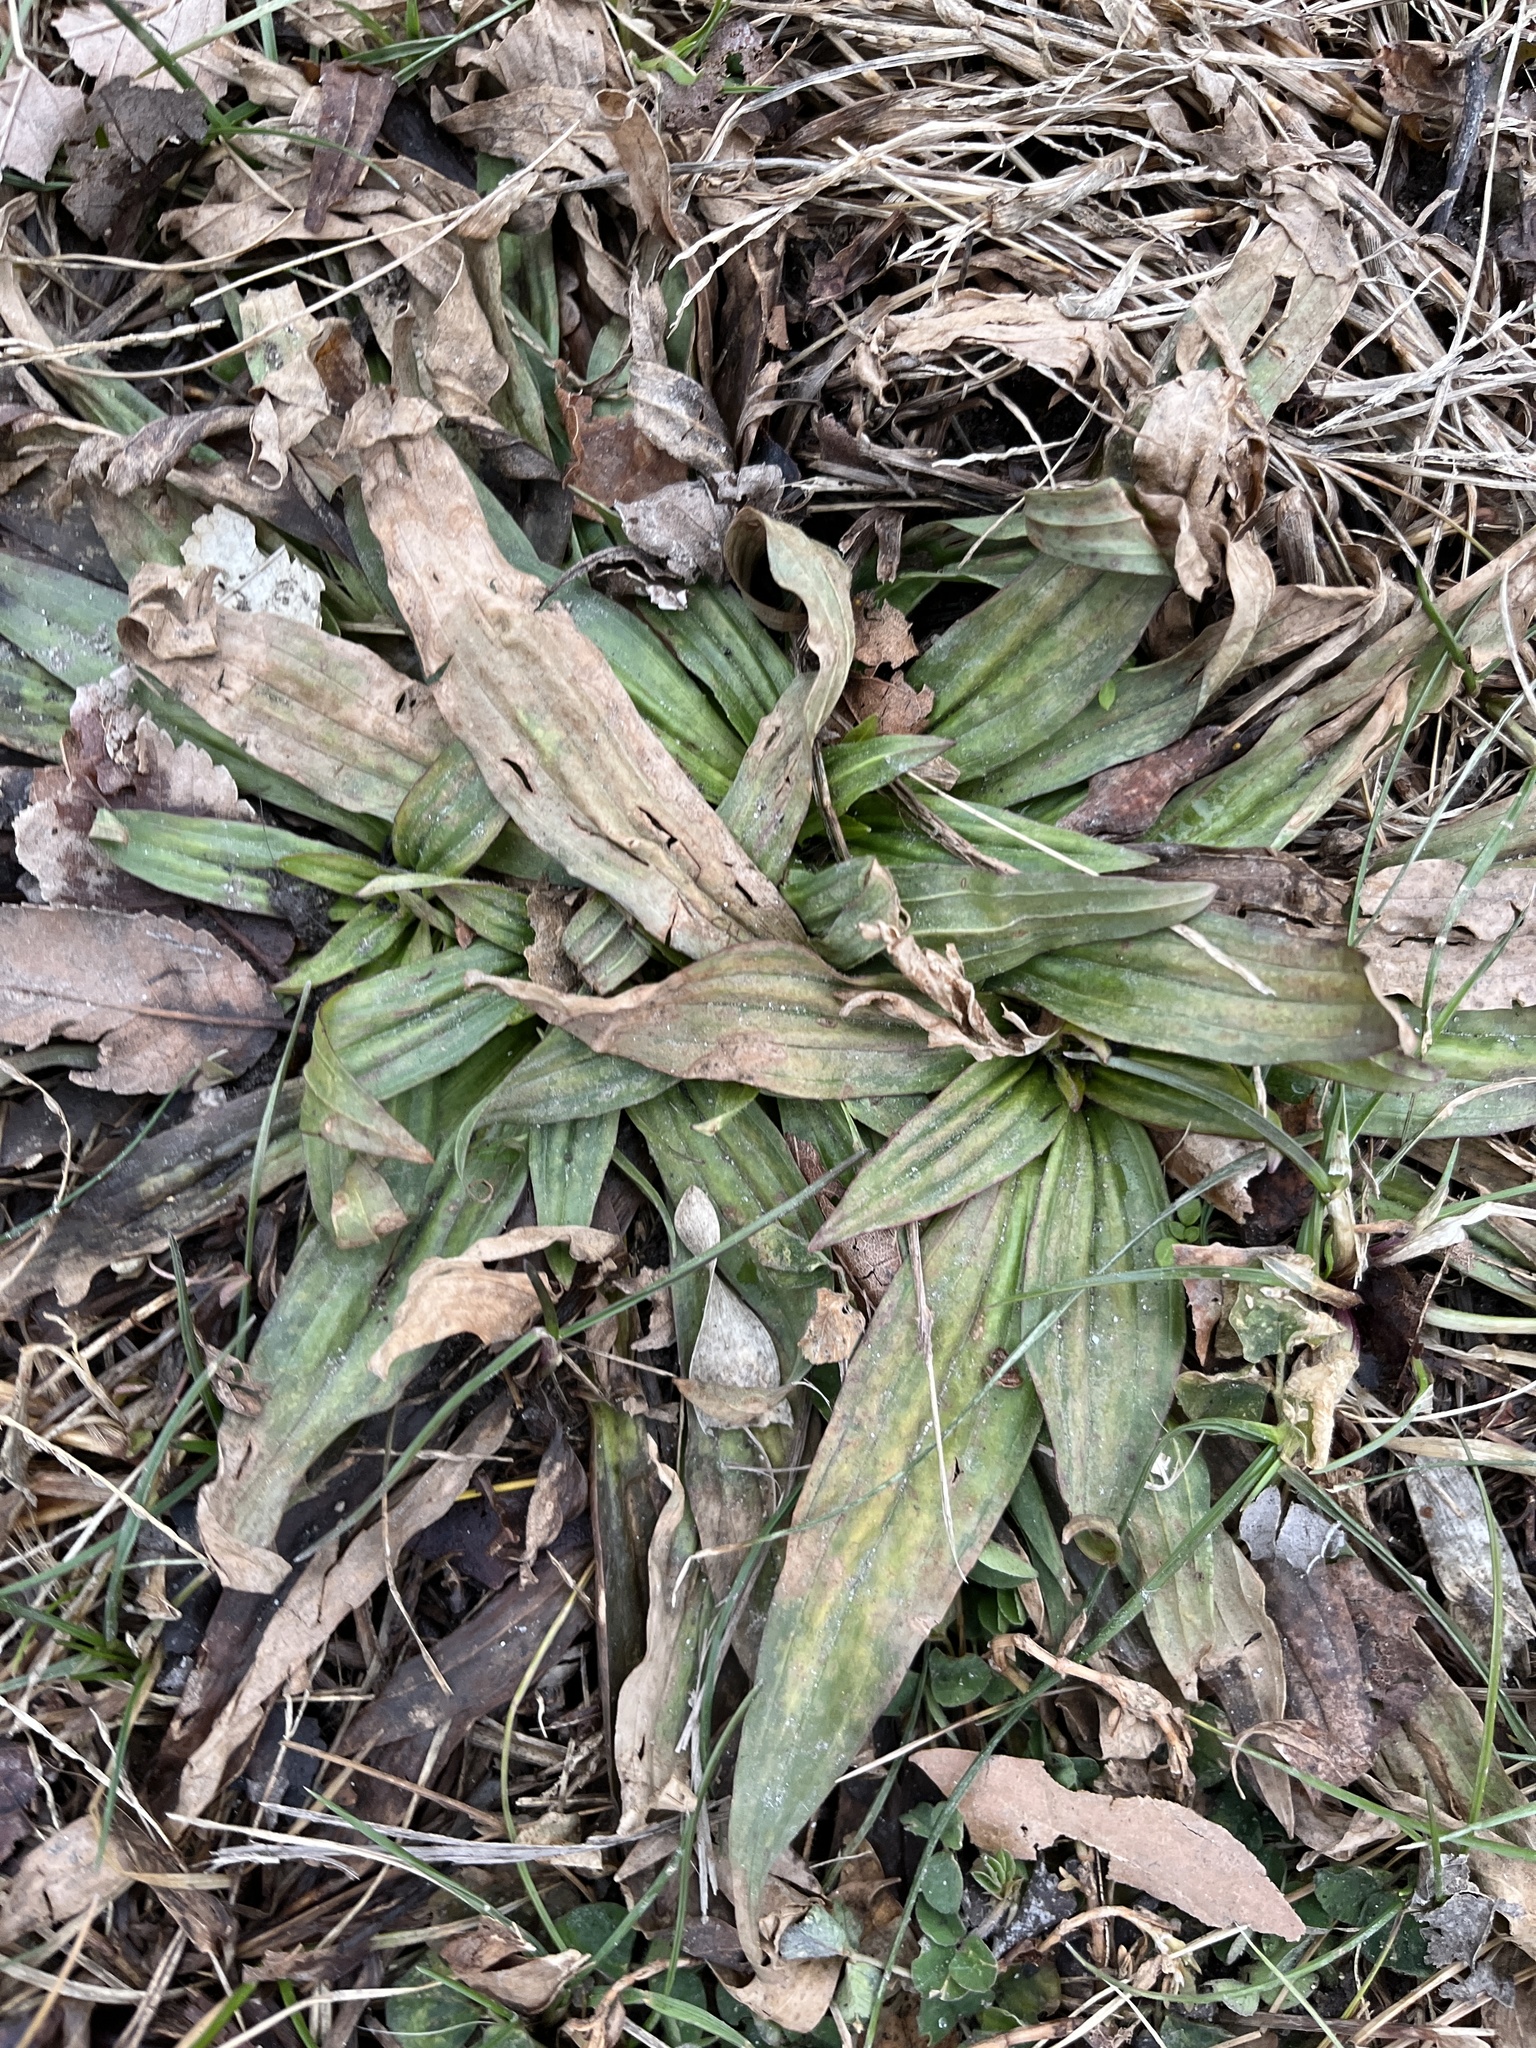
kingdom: Plantae
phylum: Tracheophyta
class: Magnoliopsida
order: Lamiales
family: Plantaginaceae
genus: Plantago
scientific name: Plantago lanceolata
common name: Ribwort plantain
